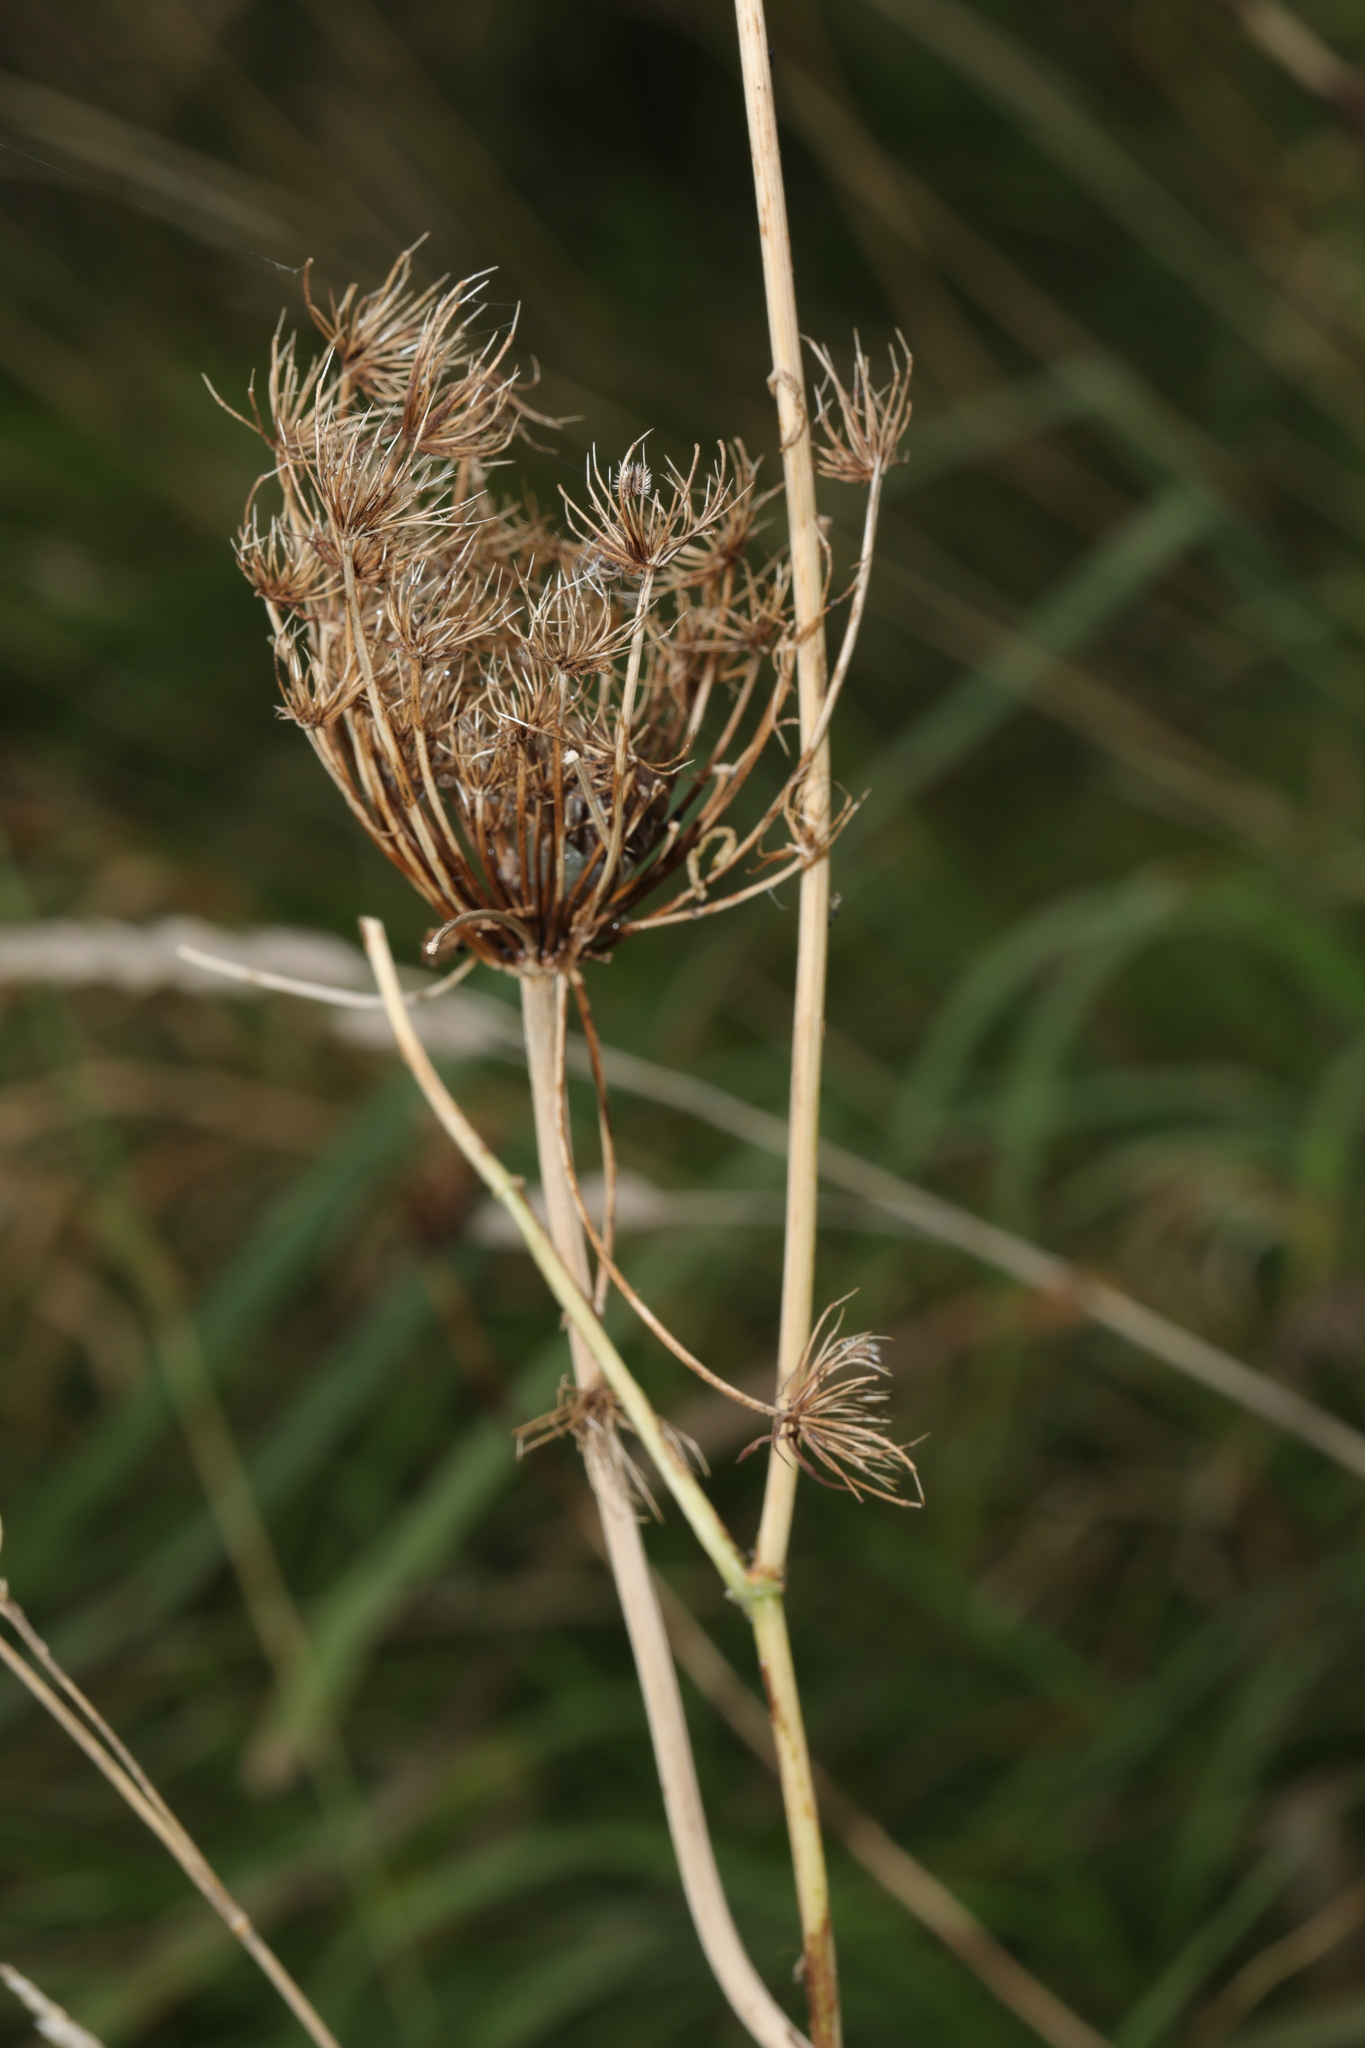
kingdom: Plantae
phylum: Tracheophyta
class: Magnoliopsida
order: Apiales
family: Apiaceae
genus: Daucus
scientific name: Daucus carota
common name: Wild carrot
